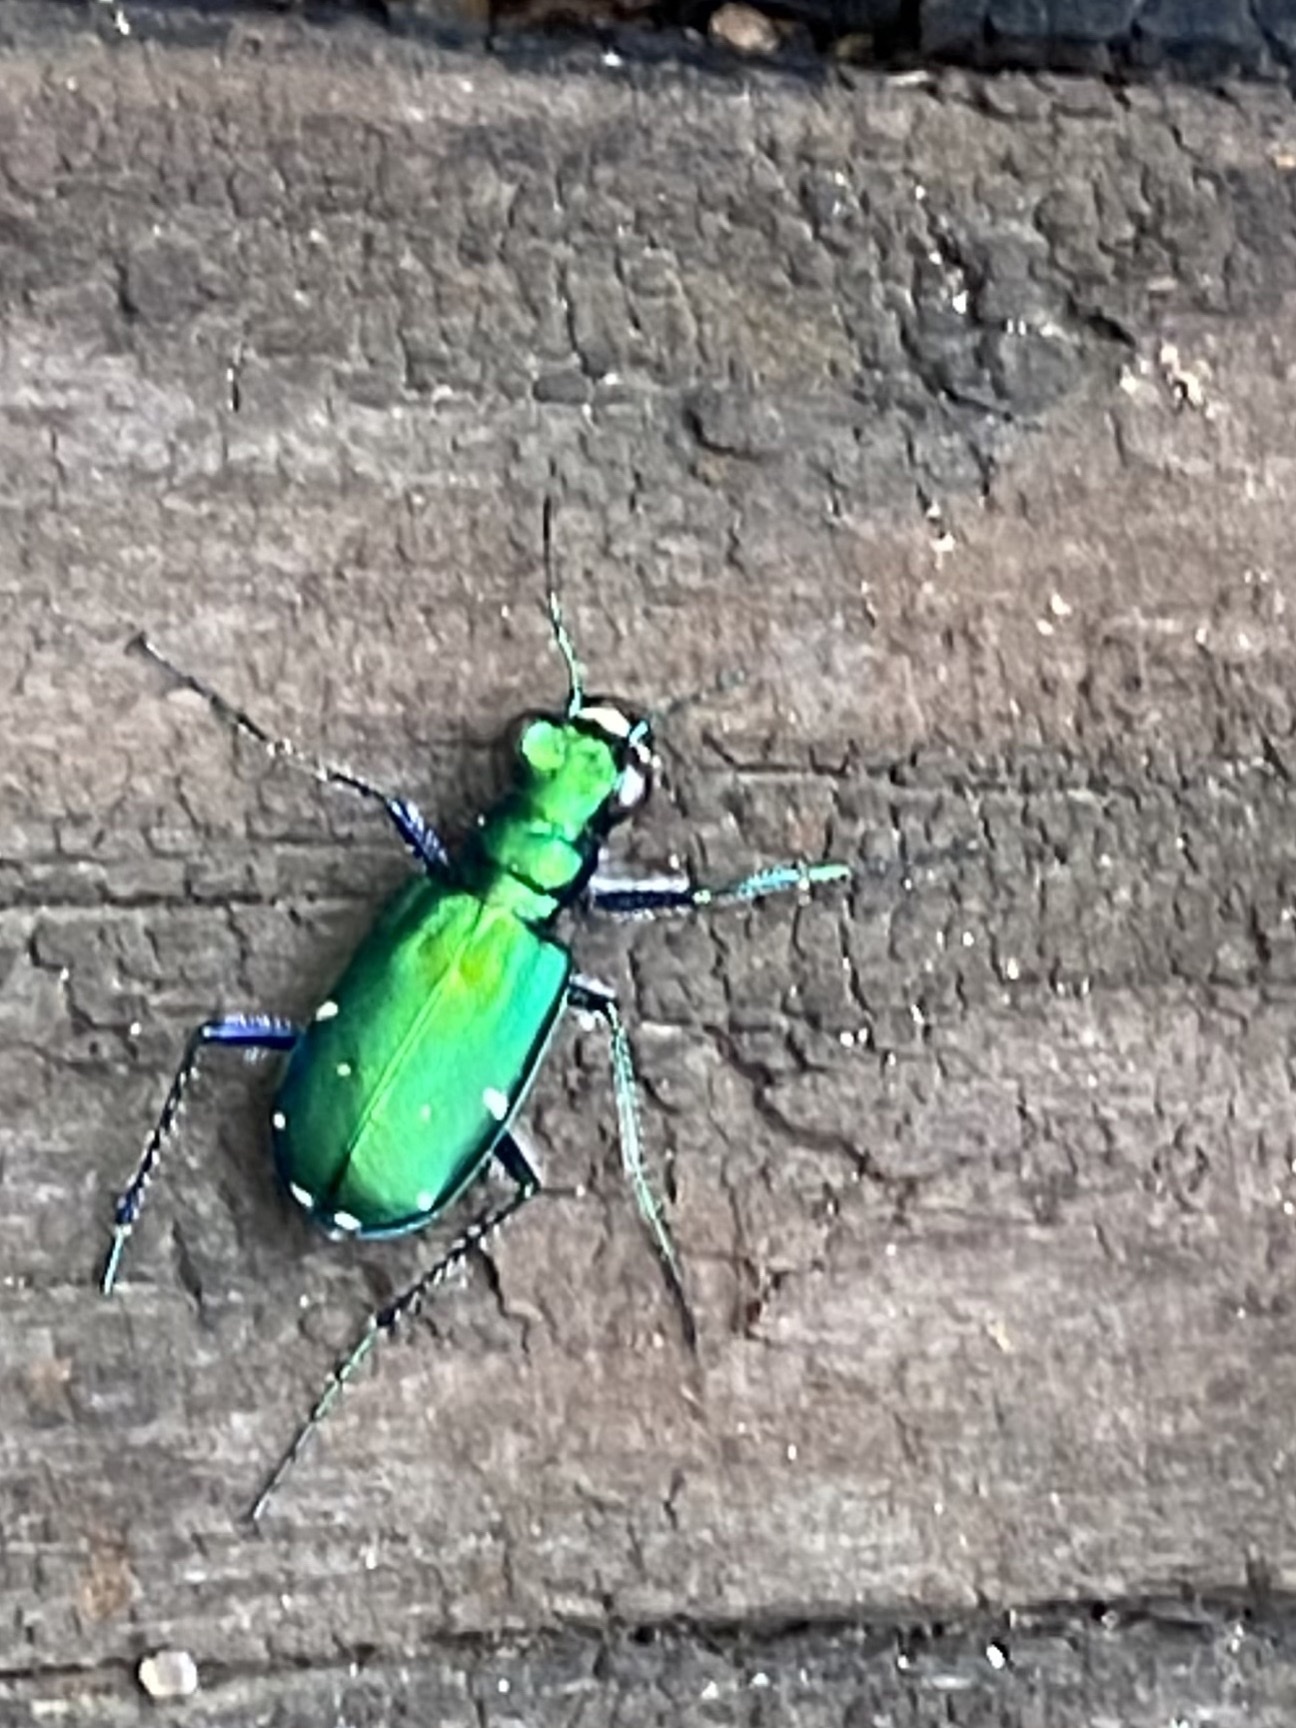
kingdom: Animalia
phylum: Arthropoda
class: Insecta
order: Coleoptera
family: Carabidae
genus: Cicindela
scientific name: Cicindela sexguttata
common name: Six-spotted tiger beetle
